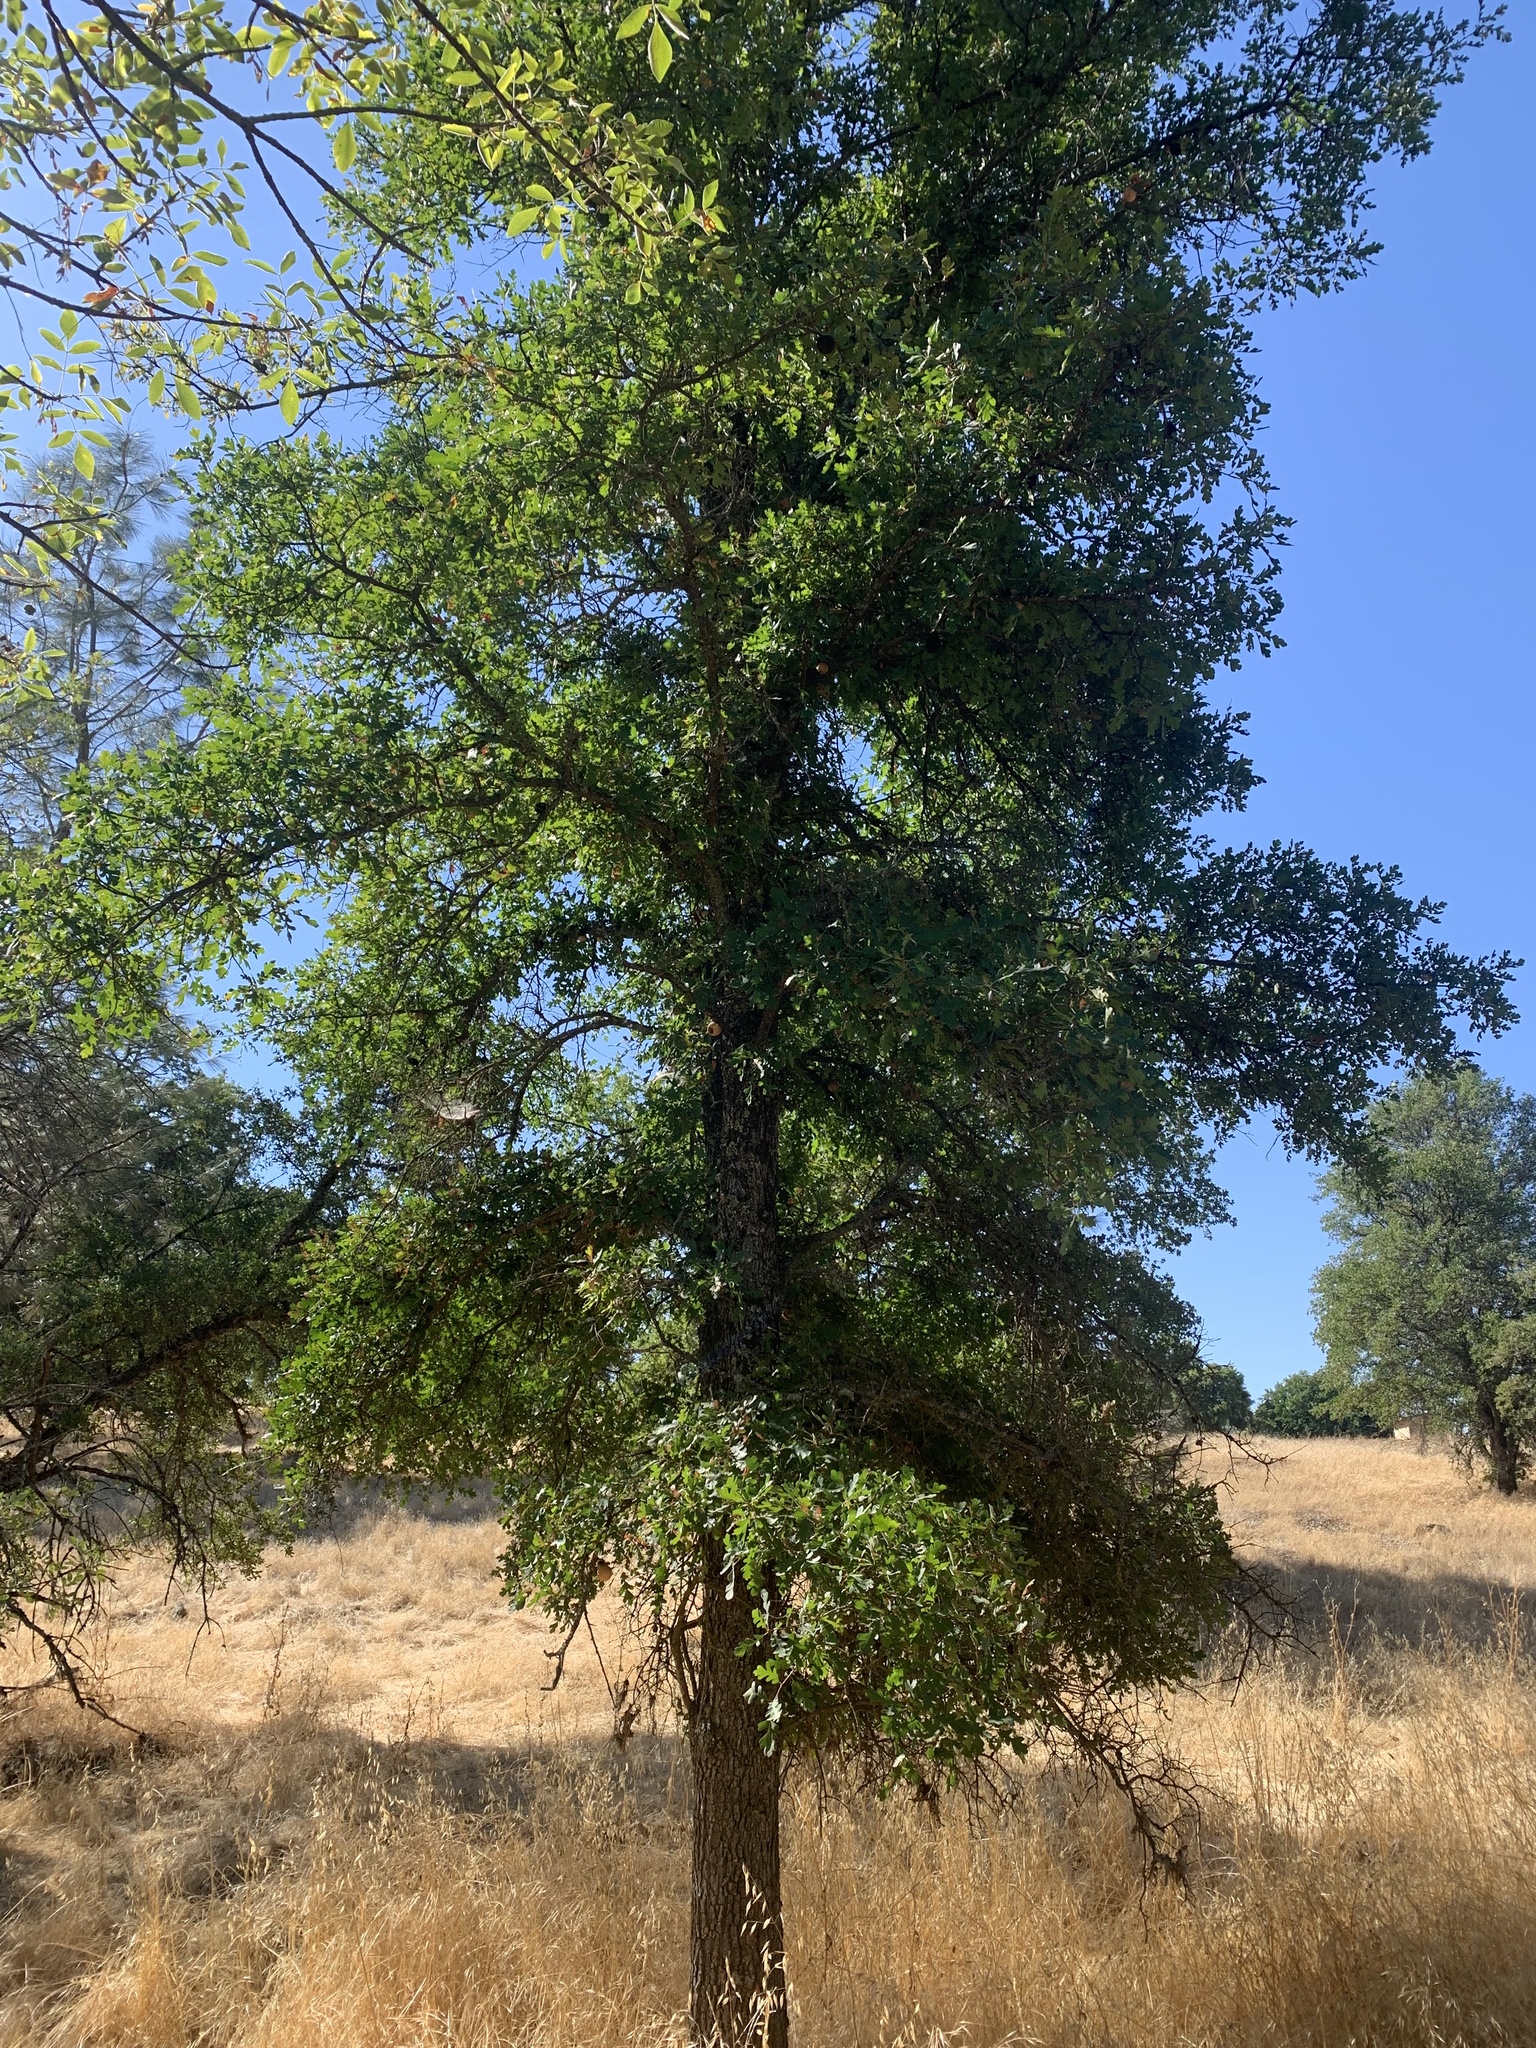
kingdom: Plantae
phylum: Tracheophyta
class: Magnoliopsida
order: Fagales
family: Fagaceae
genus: Quercus
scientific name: Quercus lobata
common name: Valley oak
